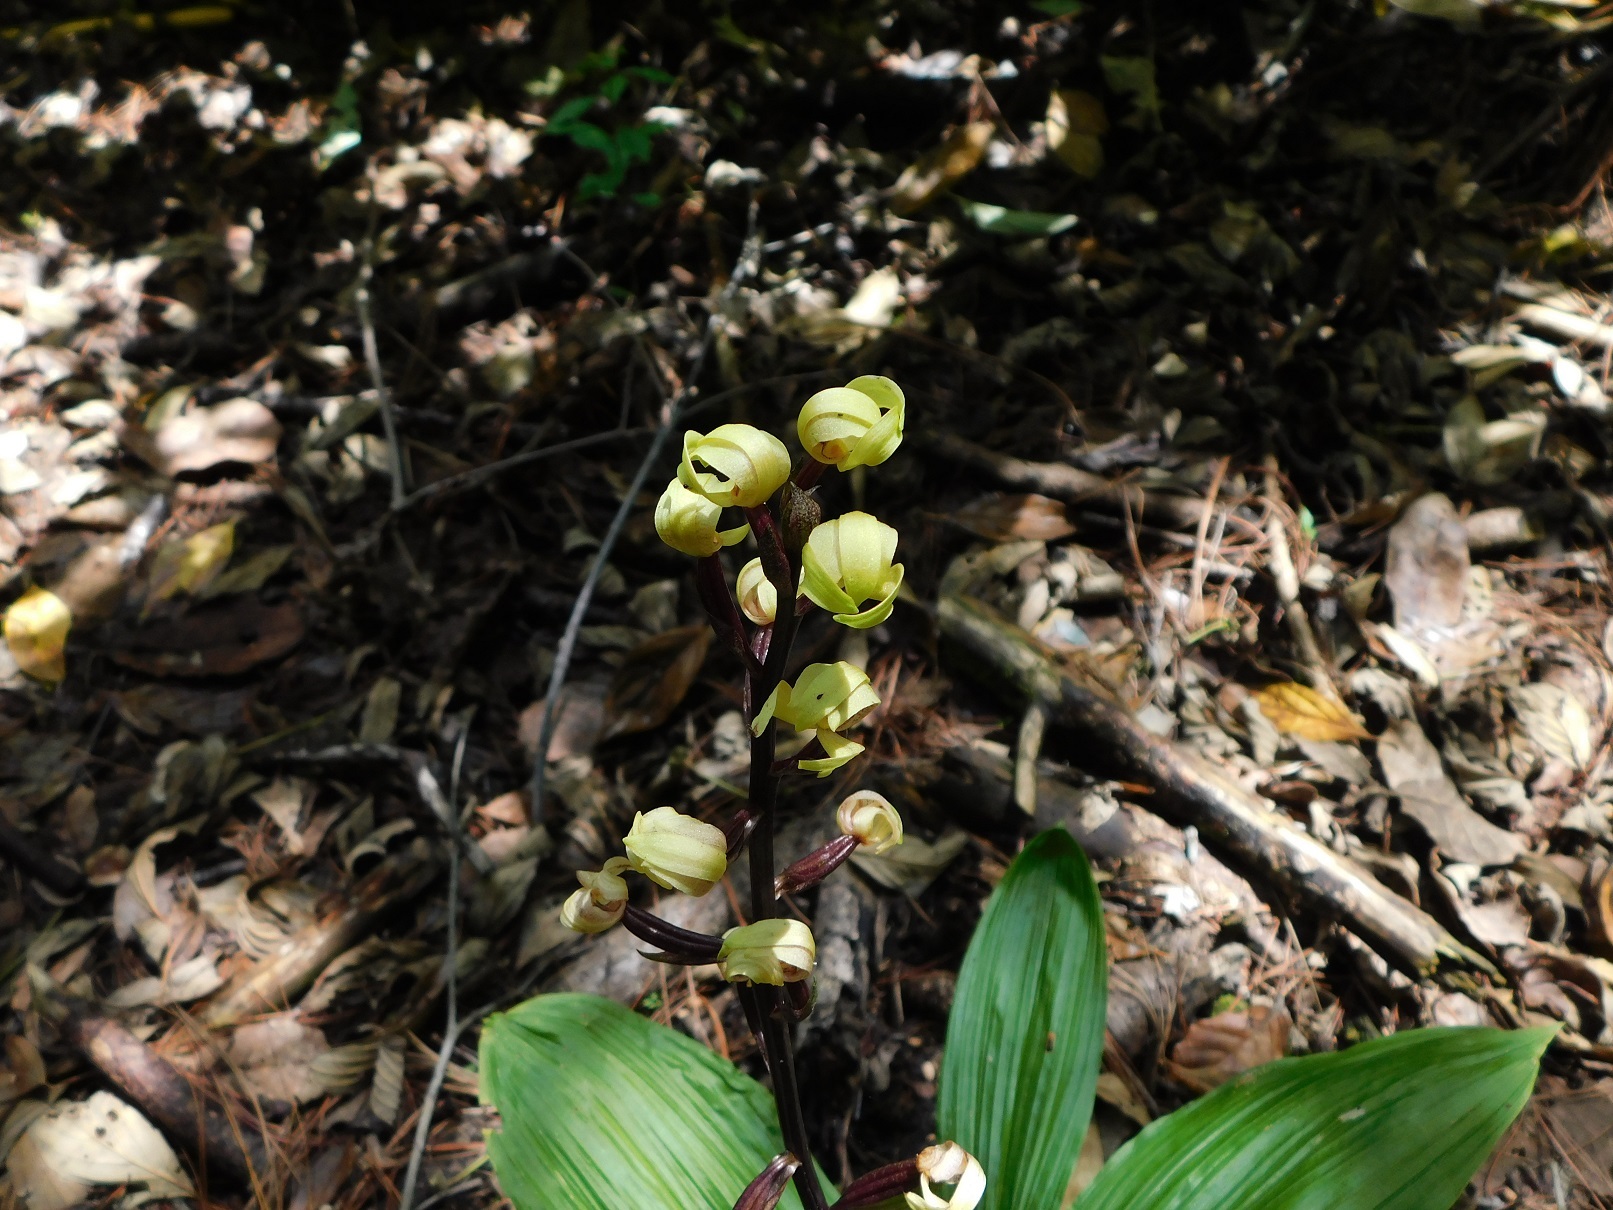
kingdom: Plantae
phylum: Tracheophyta
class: Liliopsida
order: Asparagales
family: Orchidaceae
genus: Govenia
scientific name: Govenia superba
